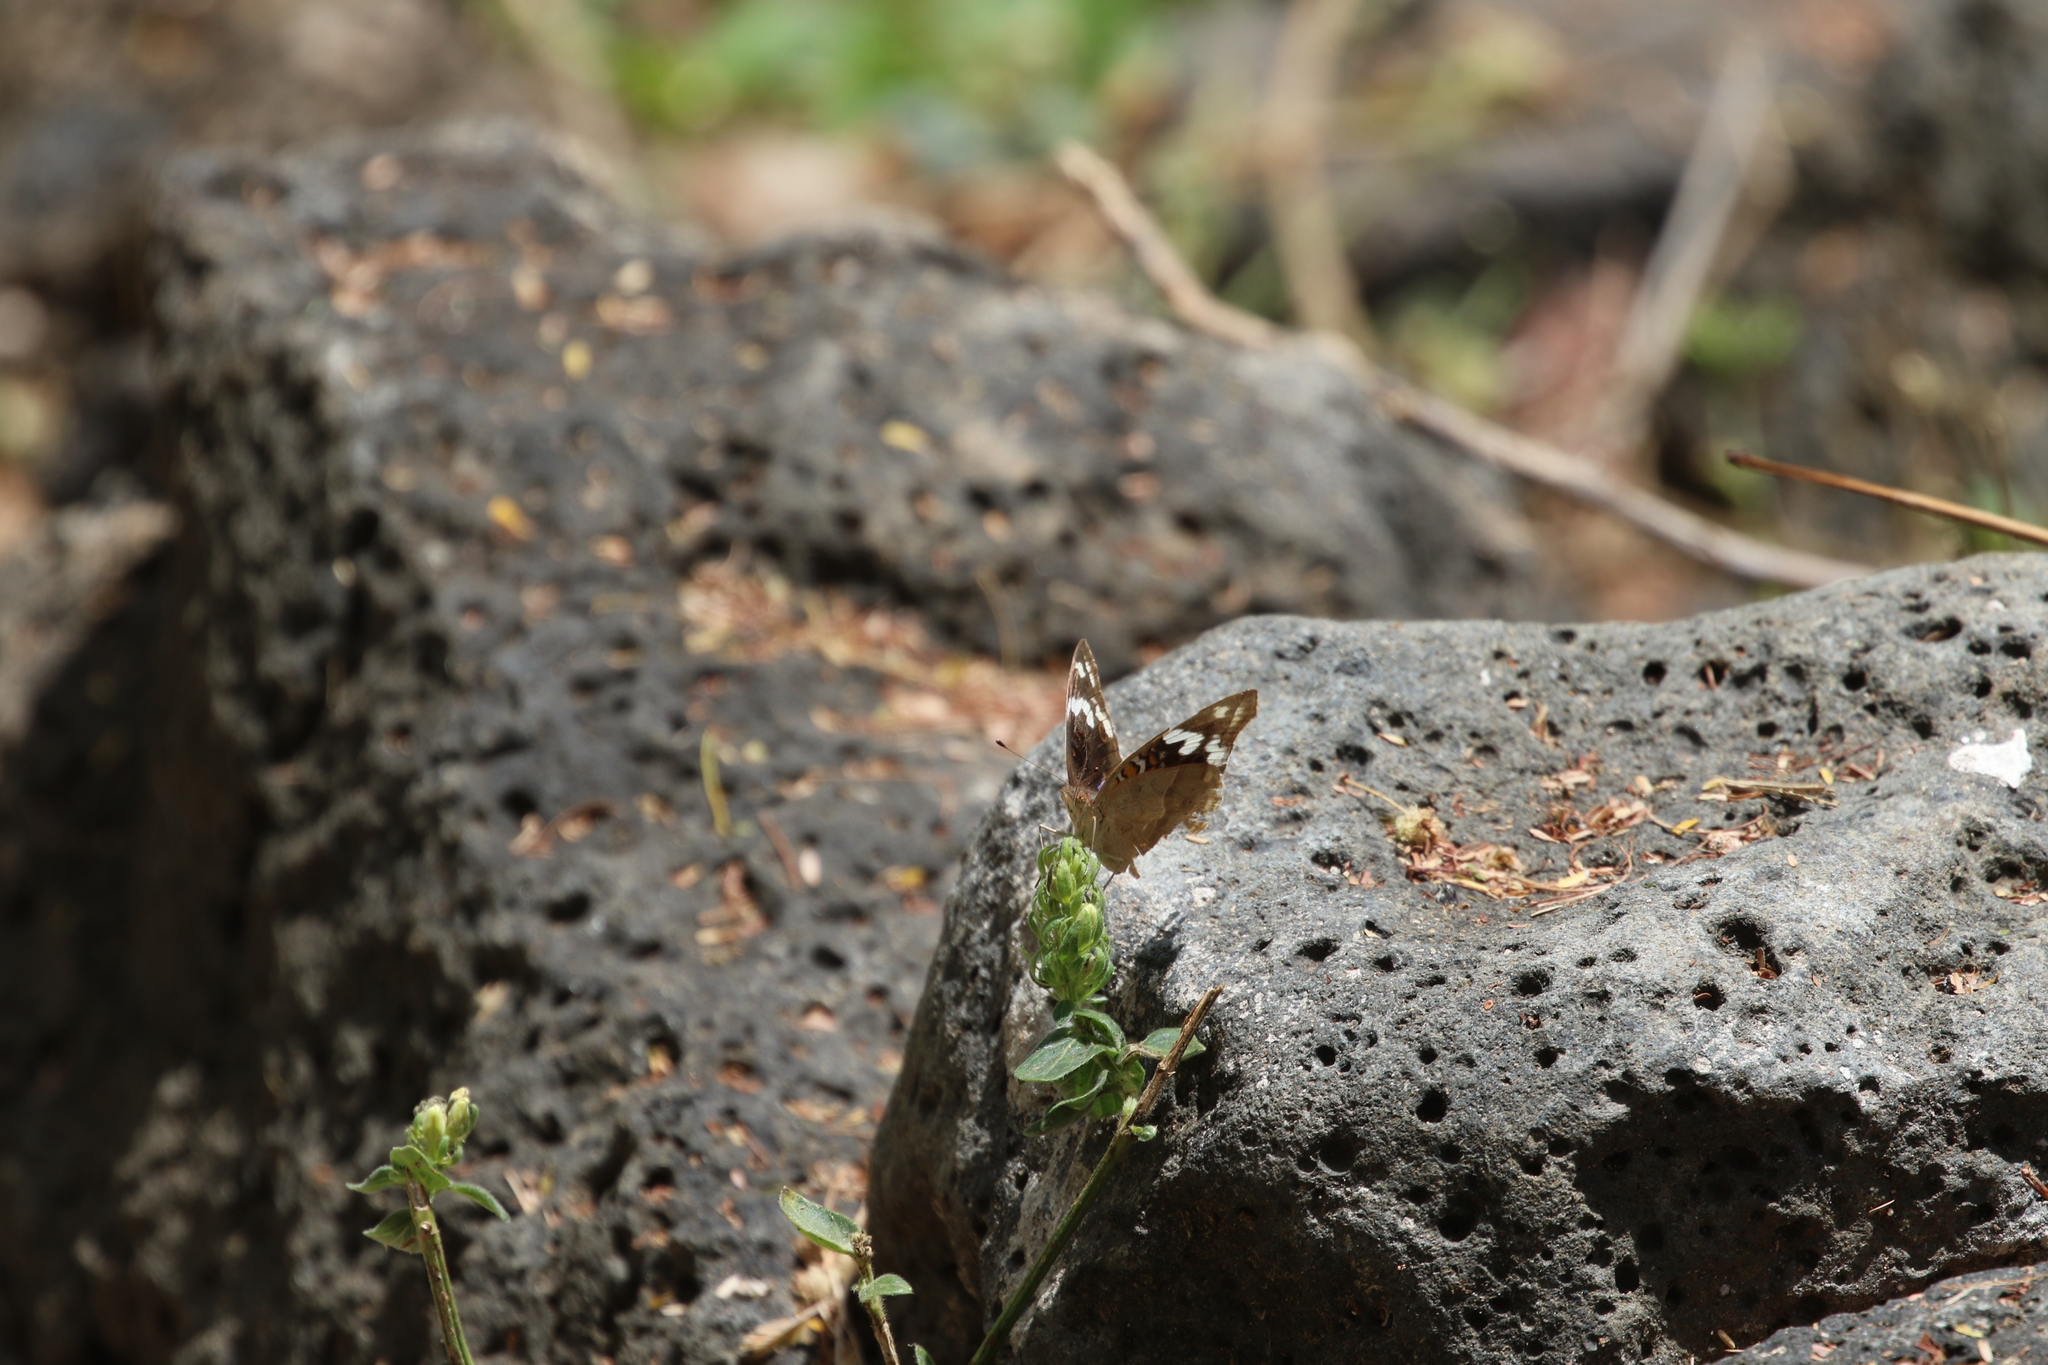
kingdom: Animalia
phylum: Arthropoda
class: Insecta
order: Lepidoptera
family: Nymphalidae
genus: Junonia
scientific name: Junonia oenone
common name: Dark blue pansy
